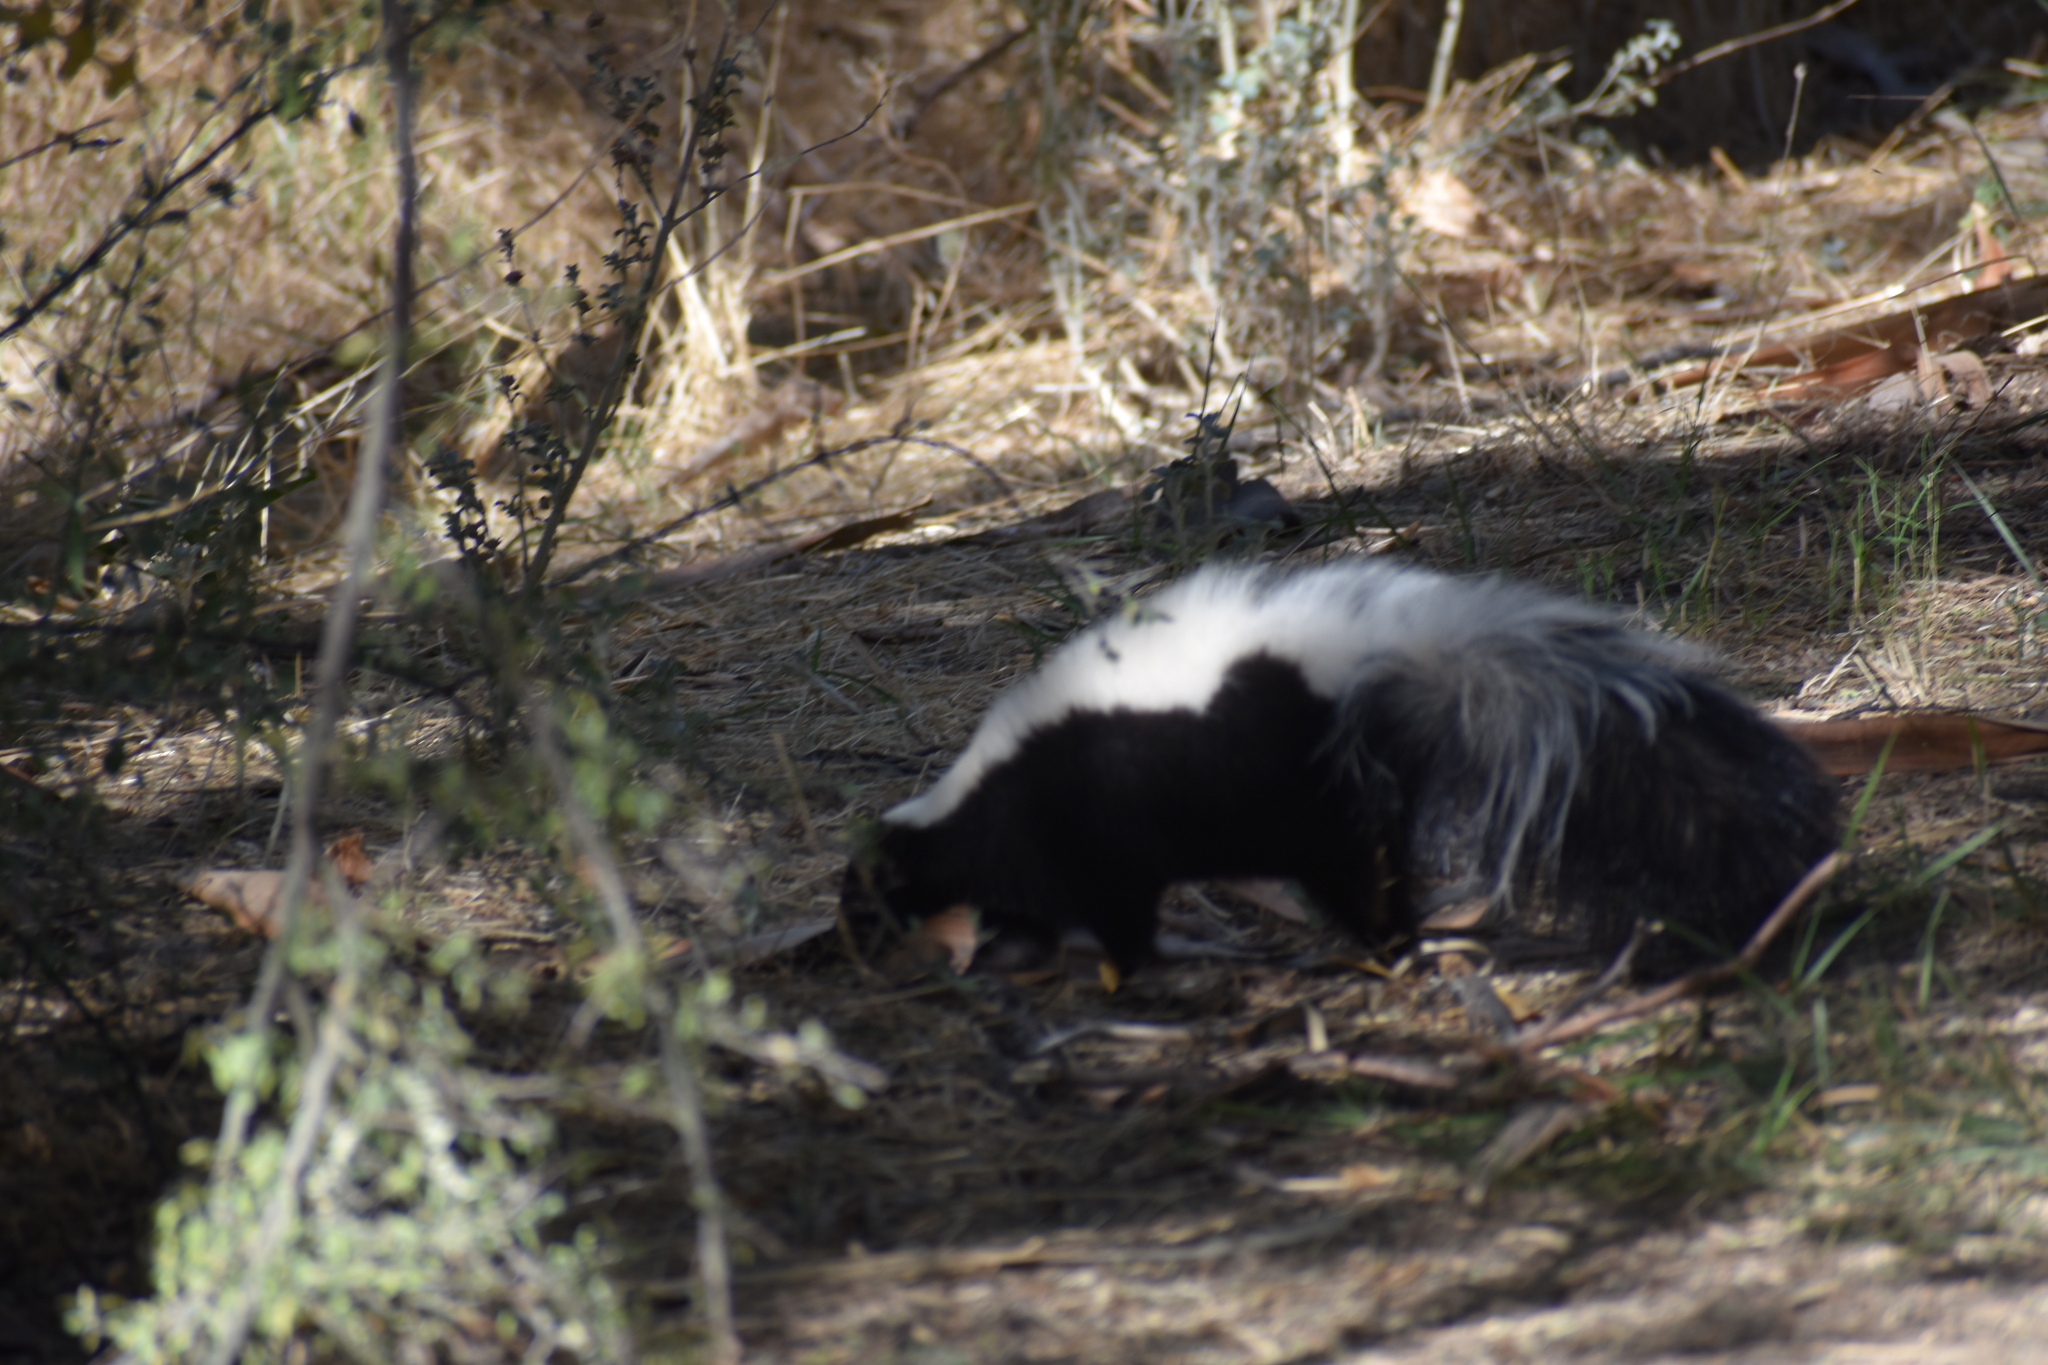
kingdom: Animalia
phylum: Chordata
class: Mammalia
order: Carnivora
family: Mephitidae
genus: Mephitis
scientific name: Mephitis mephitis
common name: Striped skunk
